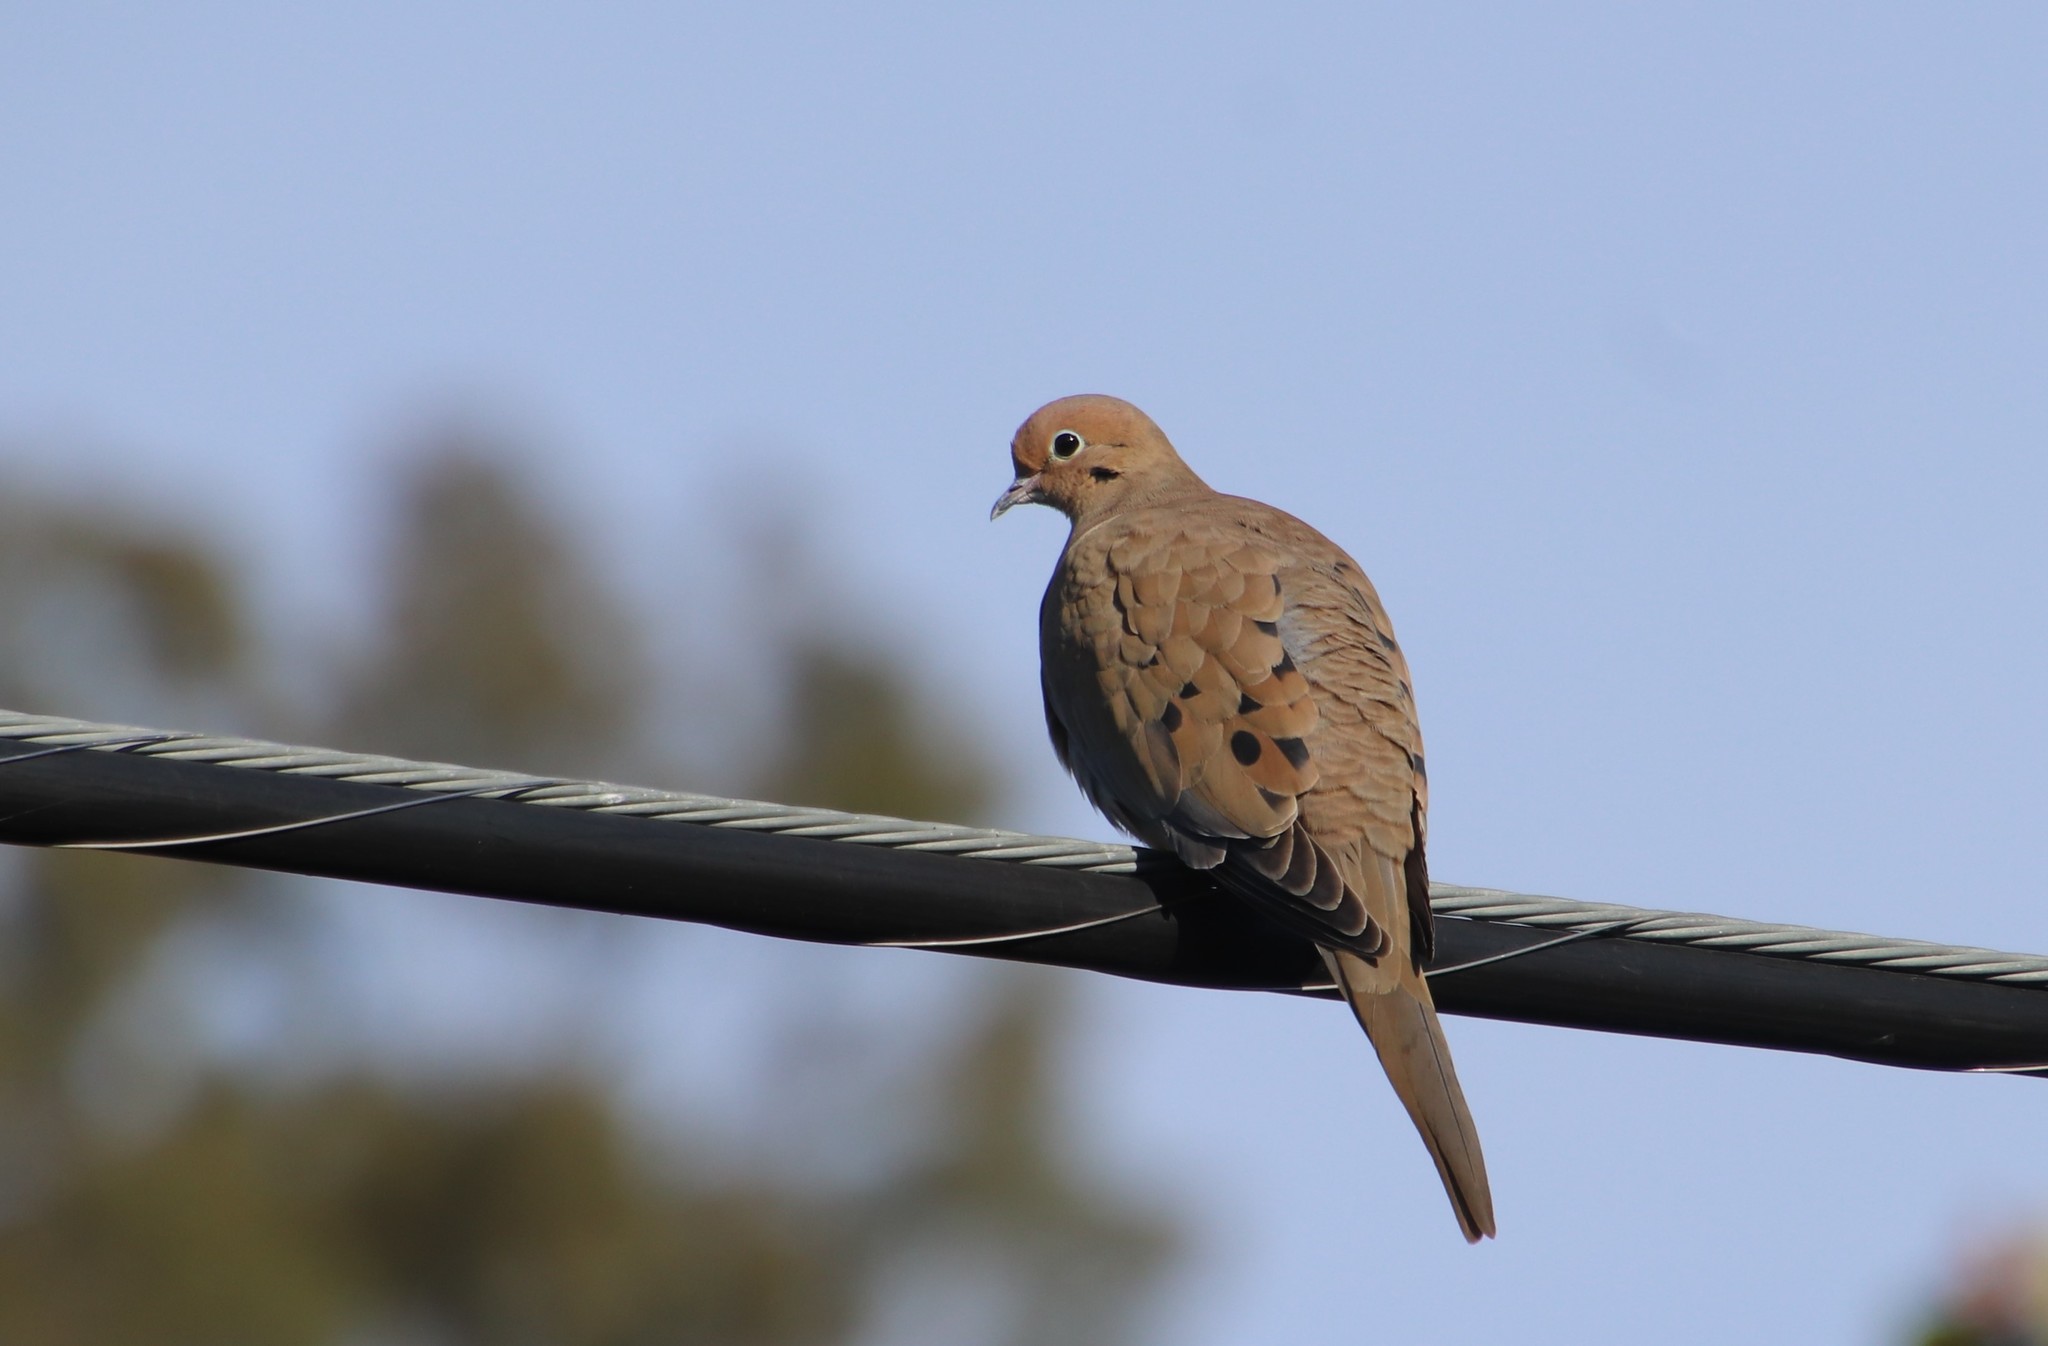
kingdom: Animalia
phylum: Chordata
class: Aves
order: Columbiformes
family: Columbidae
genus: Zenaida
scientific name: Zenaida macroura
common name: Mourning dove
